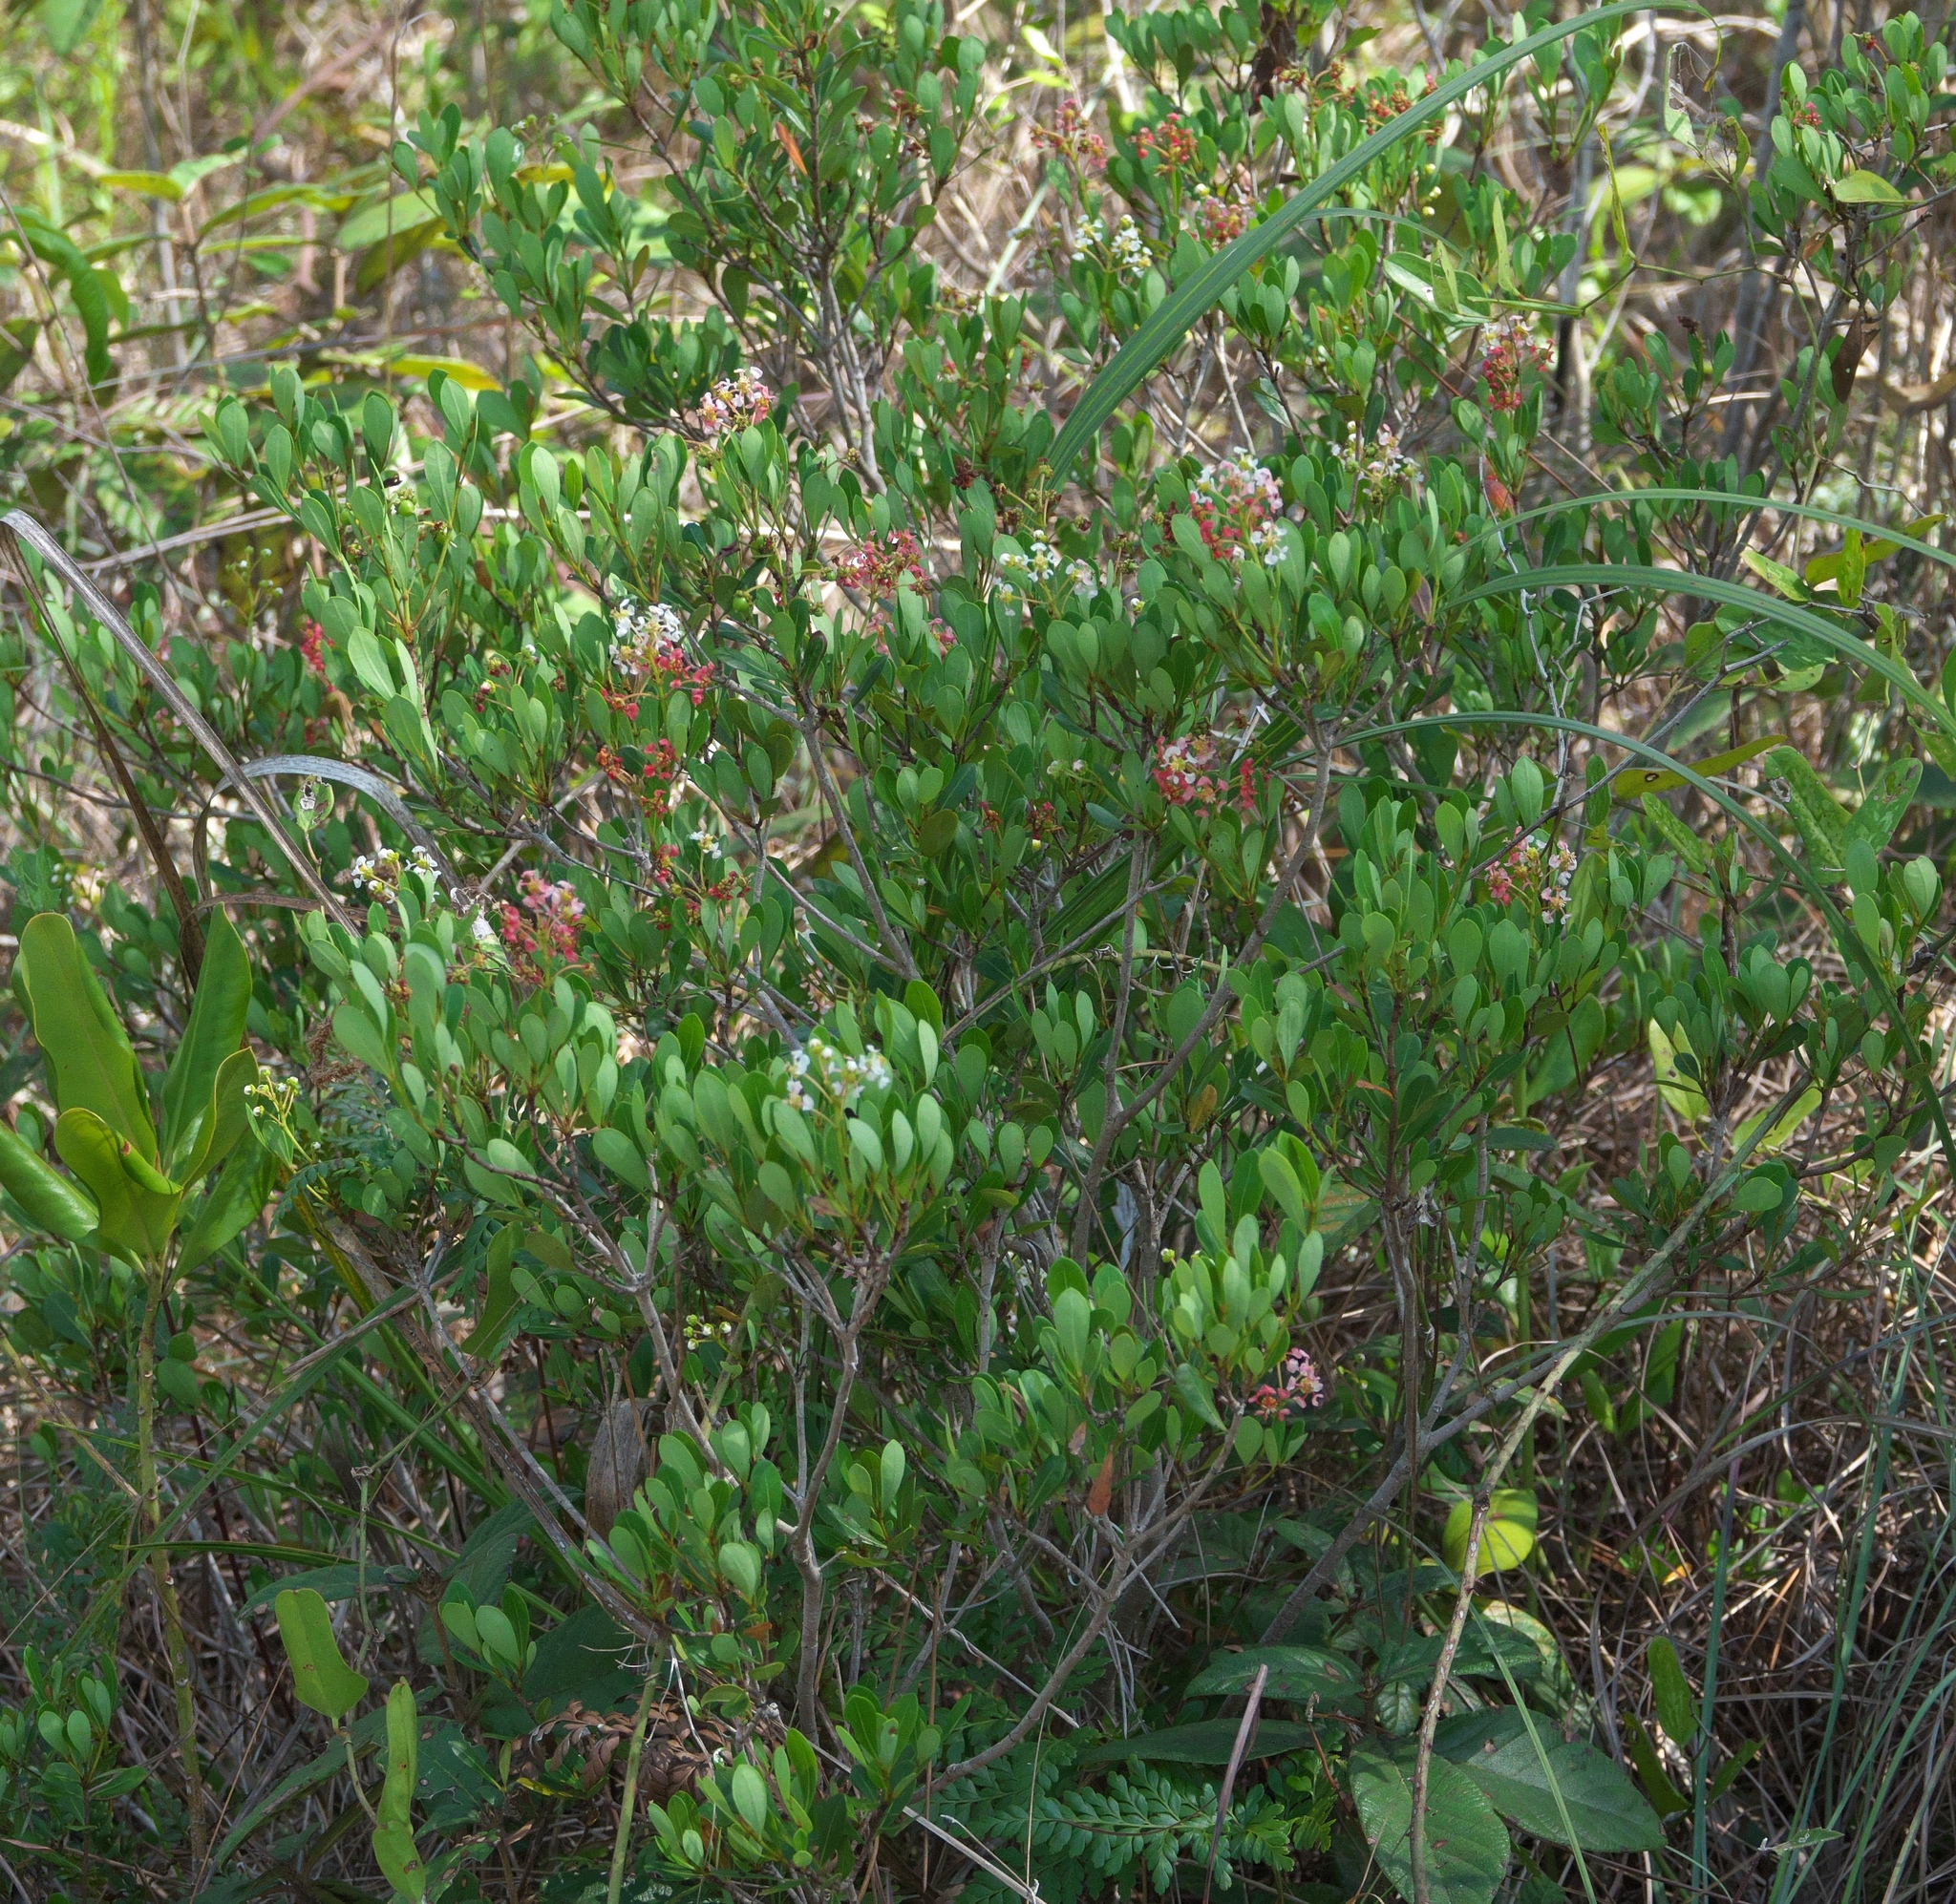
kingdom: Plantae
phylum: Tracheophyta
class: Magnoliopsida
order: Malpighiales
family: Malpighiaceae
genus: Byrsonima
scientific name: Byrsonima lucida
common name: Clam-cherry
